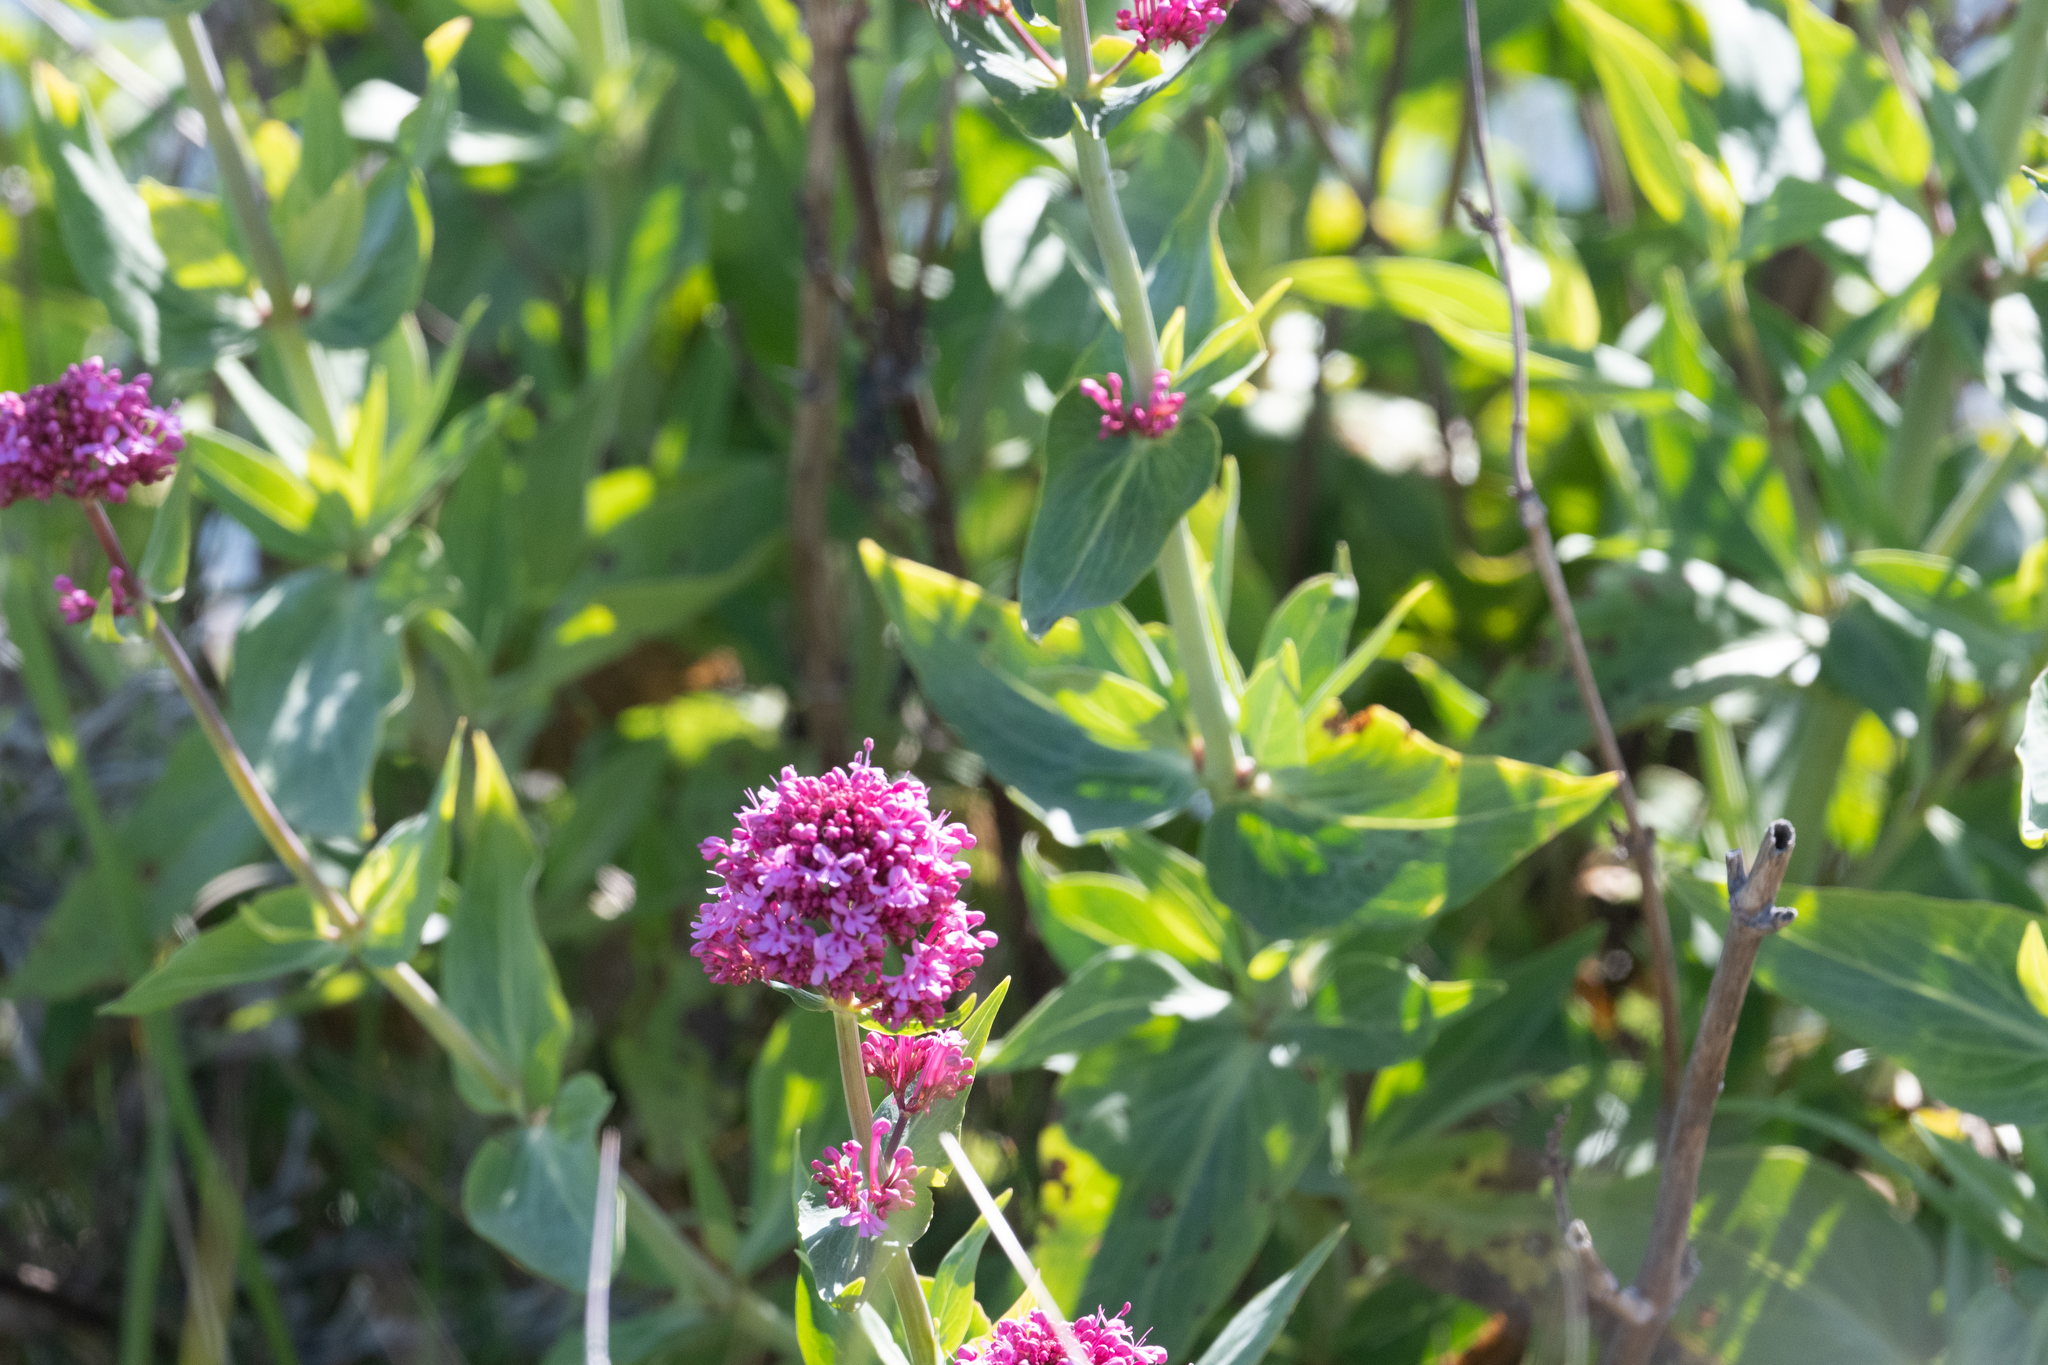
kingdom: Plantae
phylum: Tracheophyta
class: Magnoliopsida
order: Dipsacales
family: Caprifoliaceae
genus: Centranthus
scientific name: Centranthus ruber
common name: Red valerian
